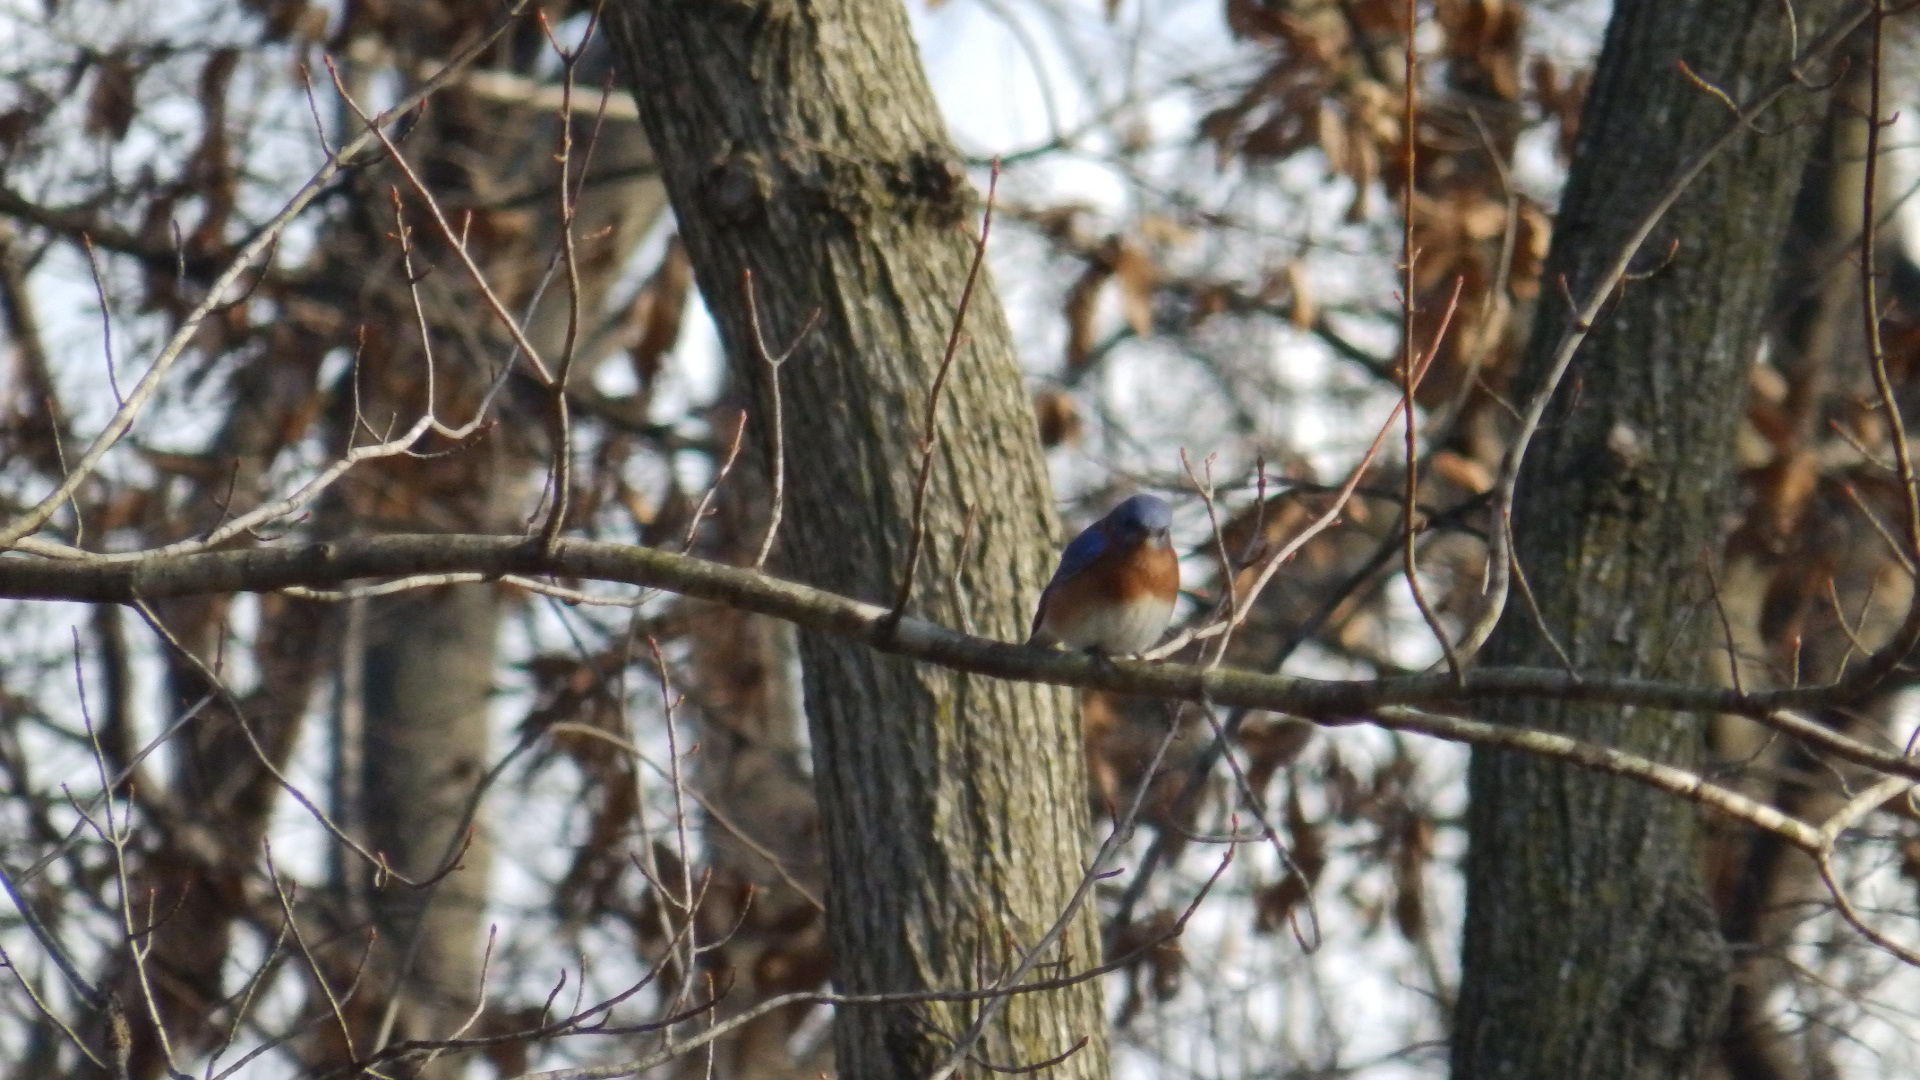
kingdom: Animalia
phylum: Chordata
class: Aves
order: Passeriformes
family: Turdidae
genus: Sialia
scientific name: Sialia sialis
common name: Eastern bluebird
